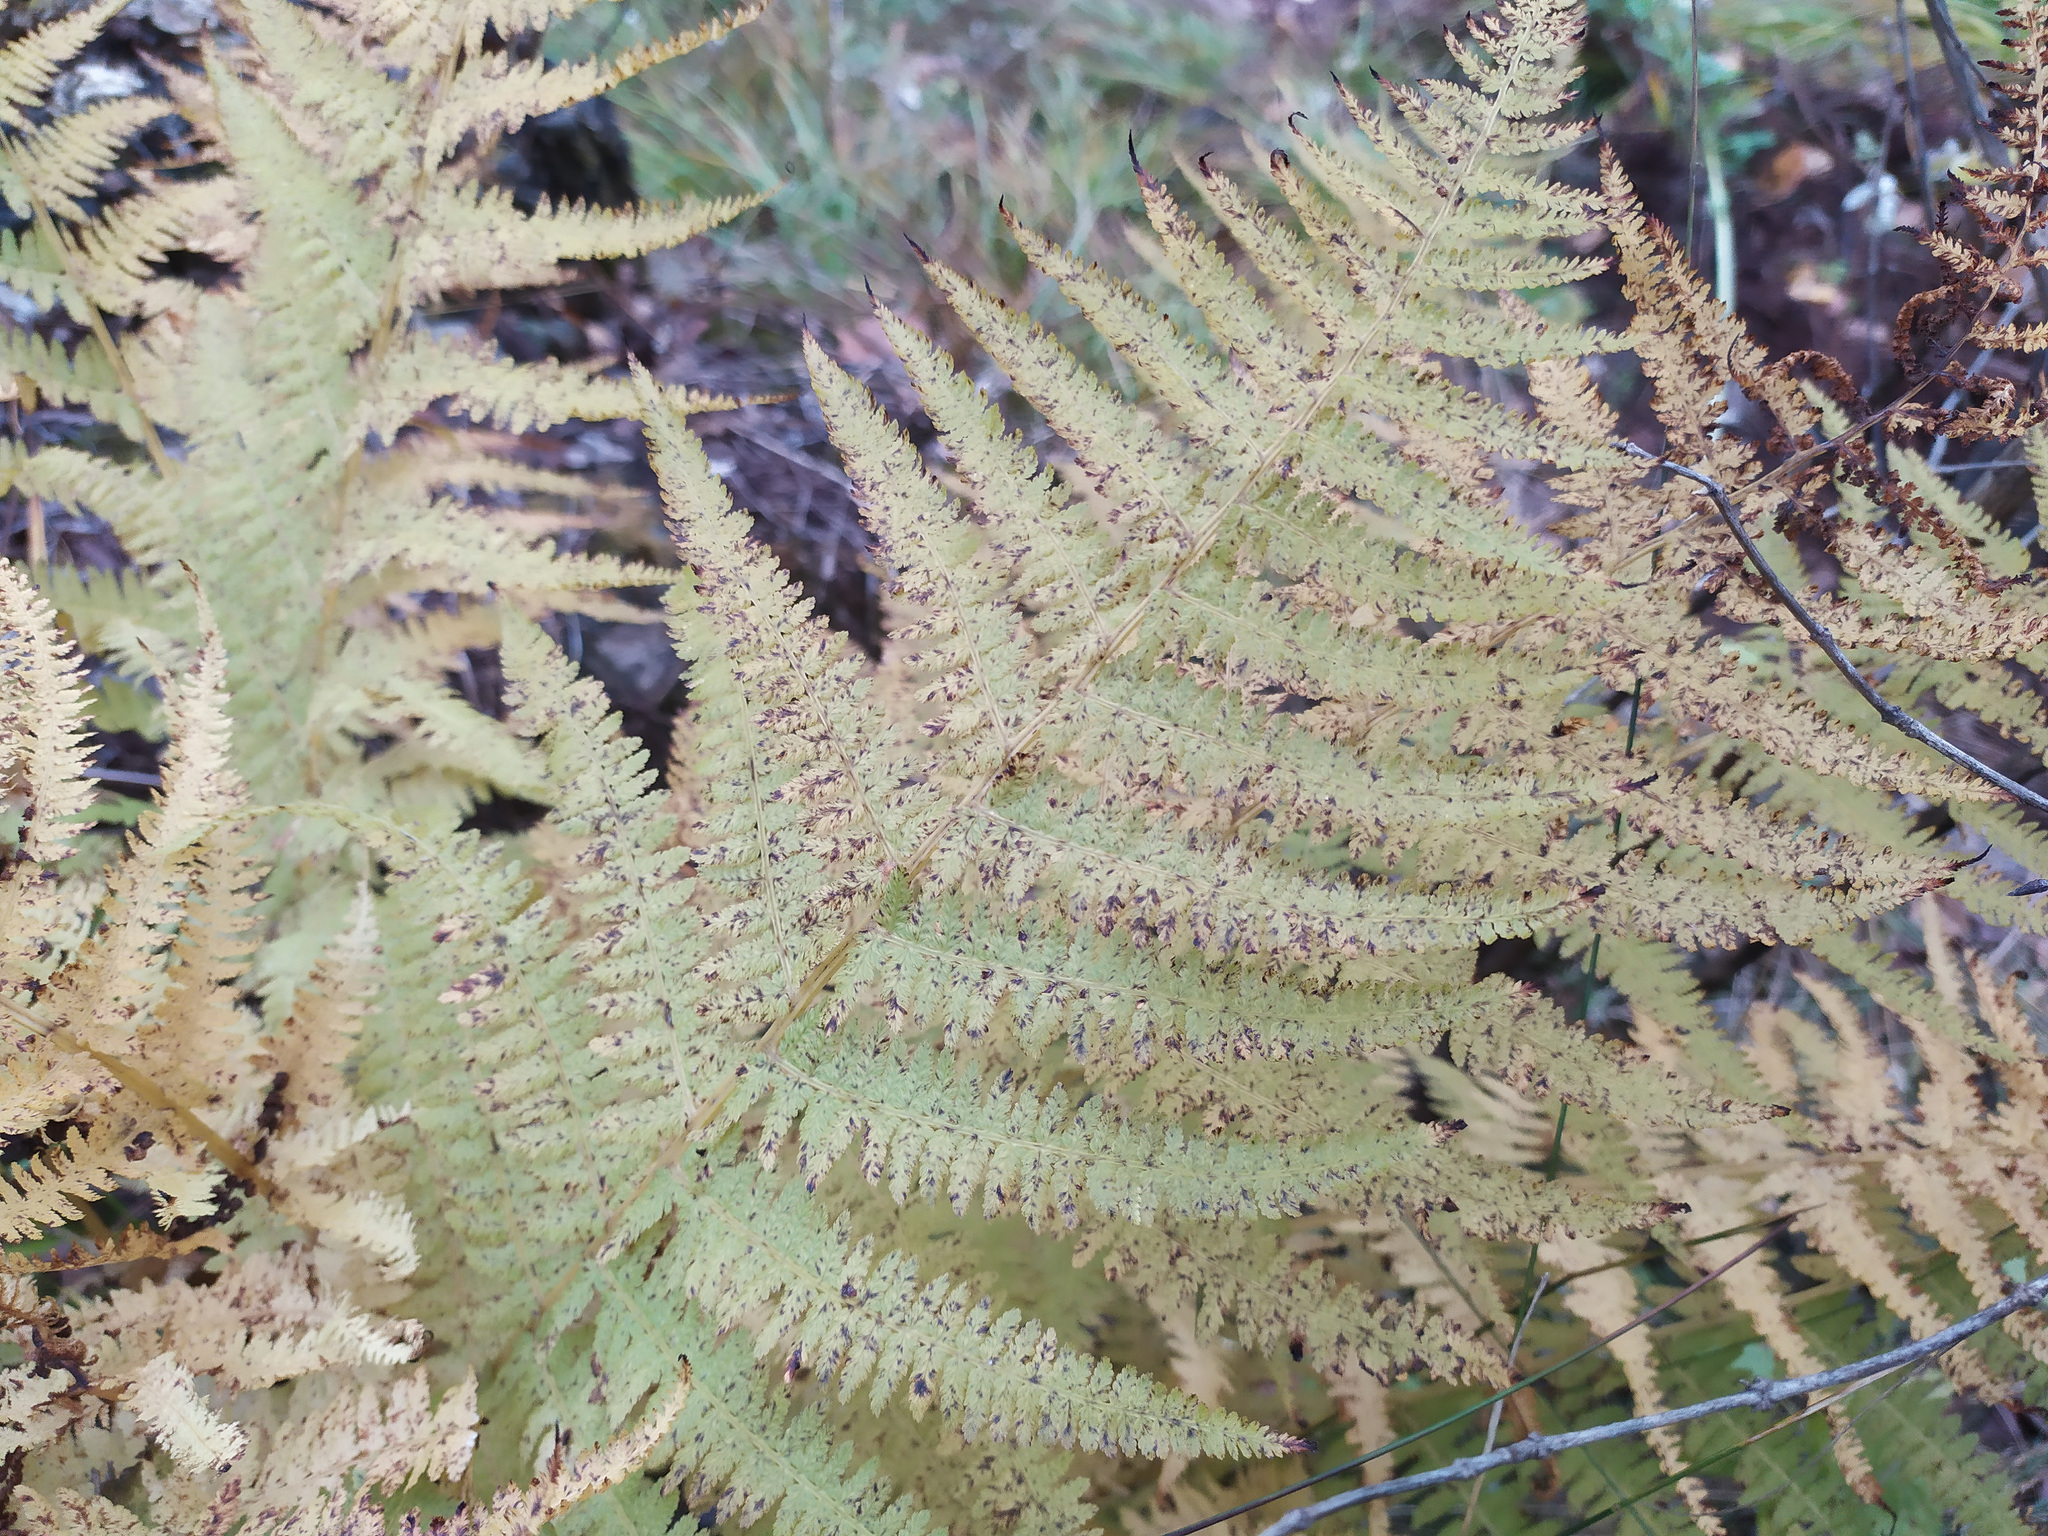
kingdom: Plantae
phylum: Tracheophyta
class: Polypodiopsida
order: Polypodiales
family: Athyriaceae
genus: Athyrium
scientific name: Athyrium filix-femina
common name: Lady fern
